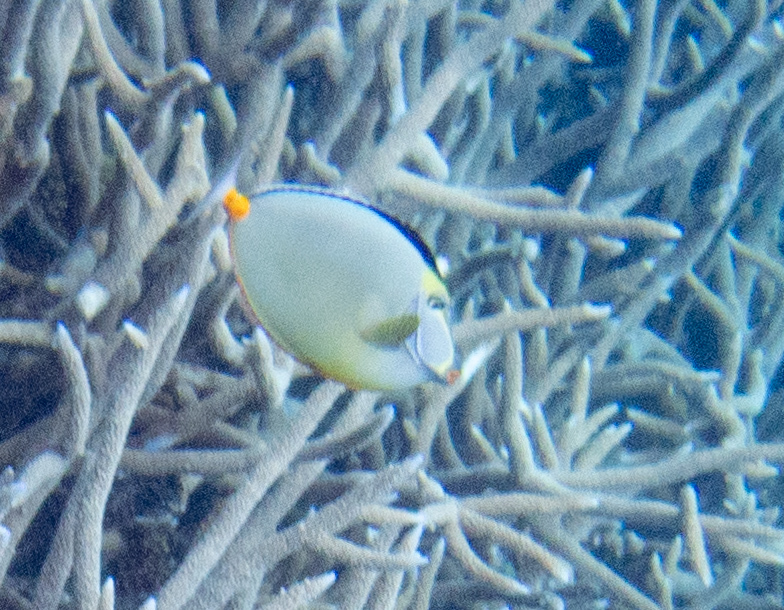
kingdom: Animalia
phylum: Chordata
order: Perciformes
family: Acanthuridae
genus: Naso
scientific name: Naso lituratus
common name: Orangespine unicornfish
